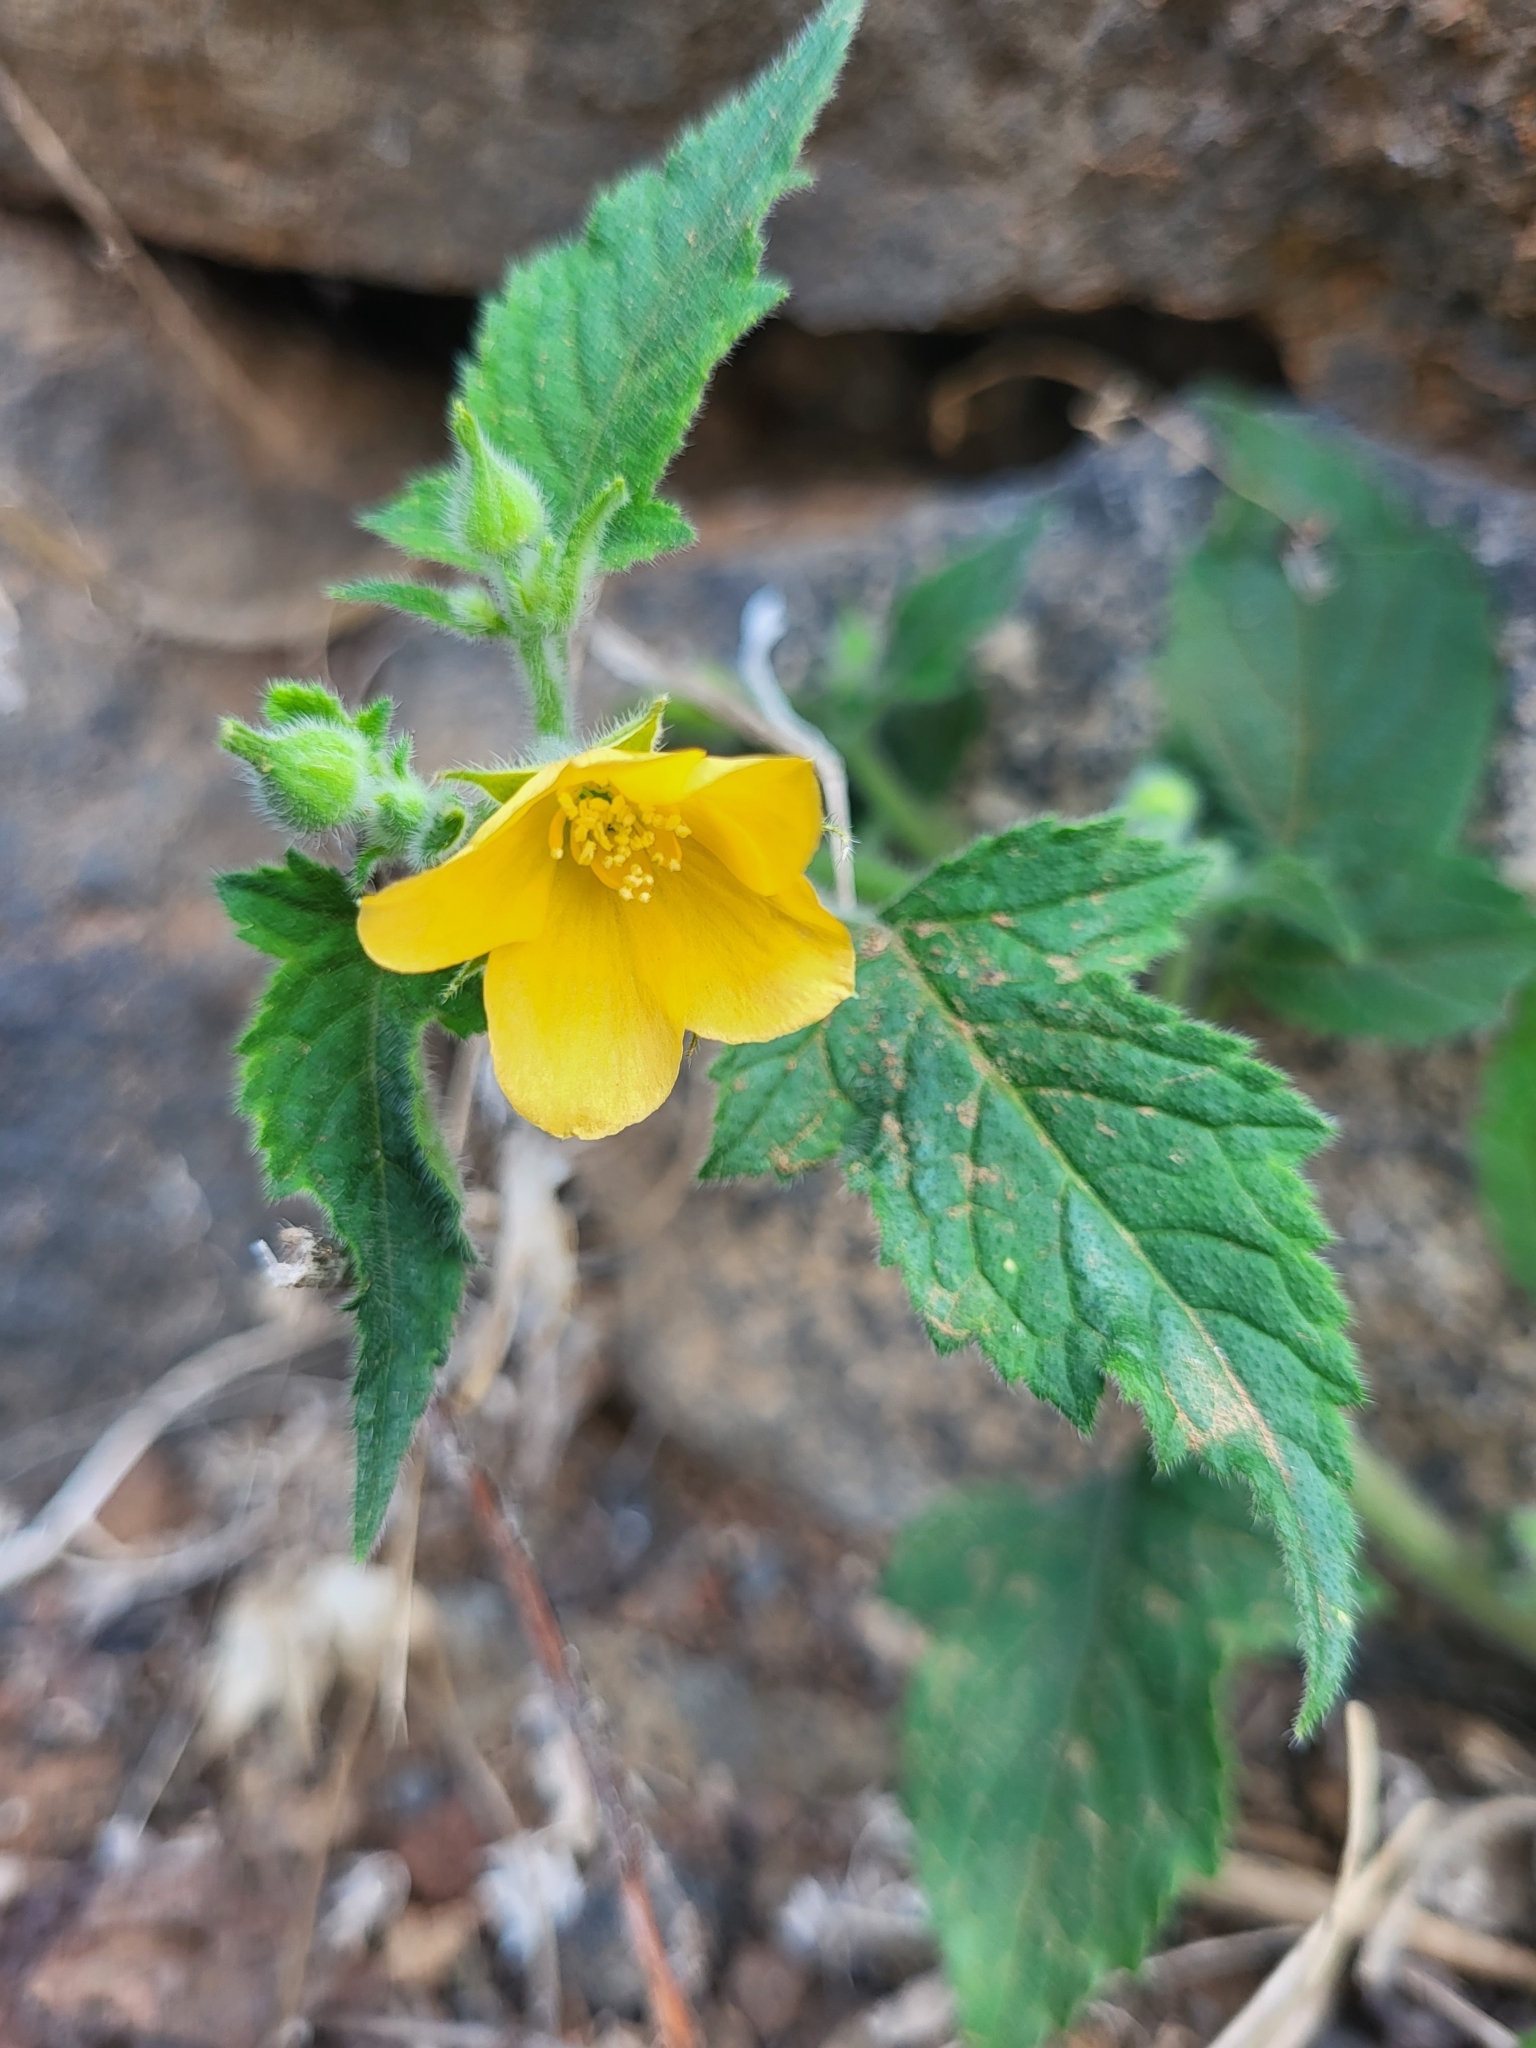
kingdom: Plantae
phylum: Tracheophyta
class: Magnoliopsida
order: Cornales
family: Loasaceae
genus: Mentzelia
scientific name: Mentzelia aspera
